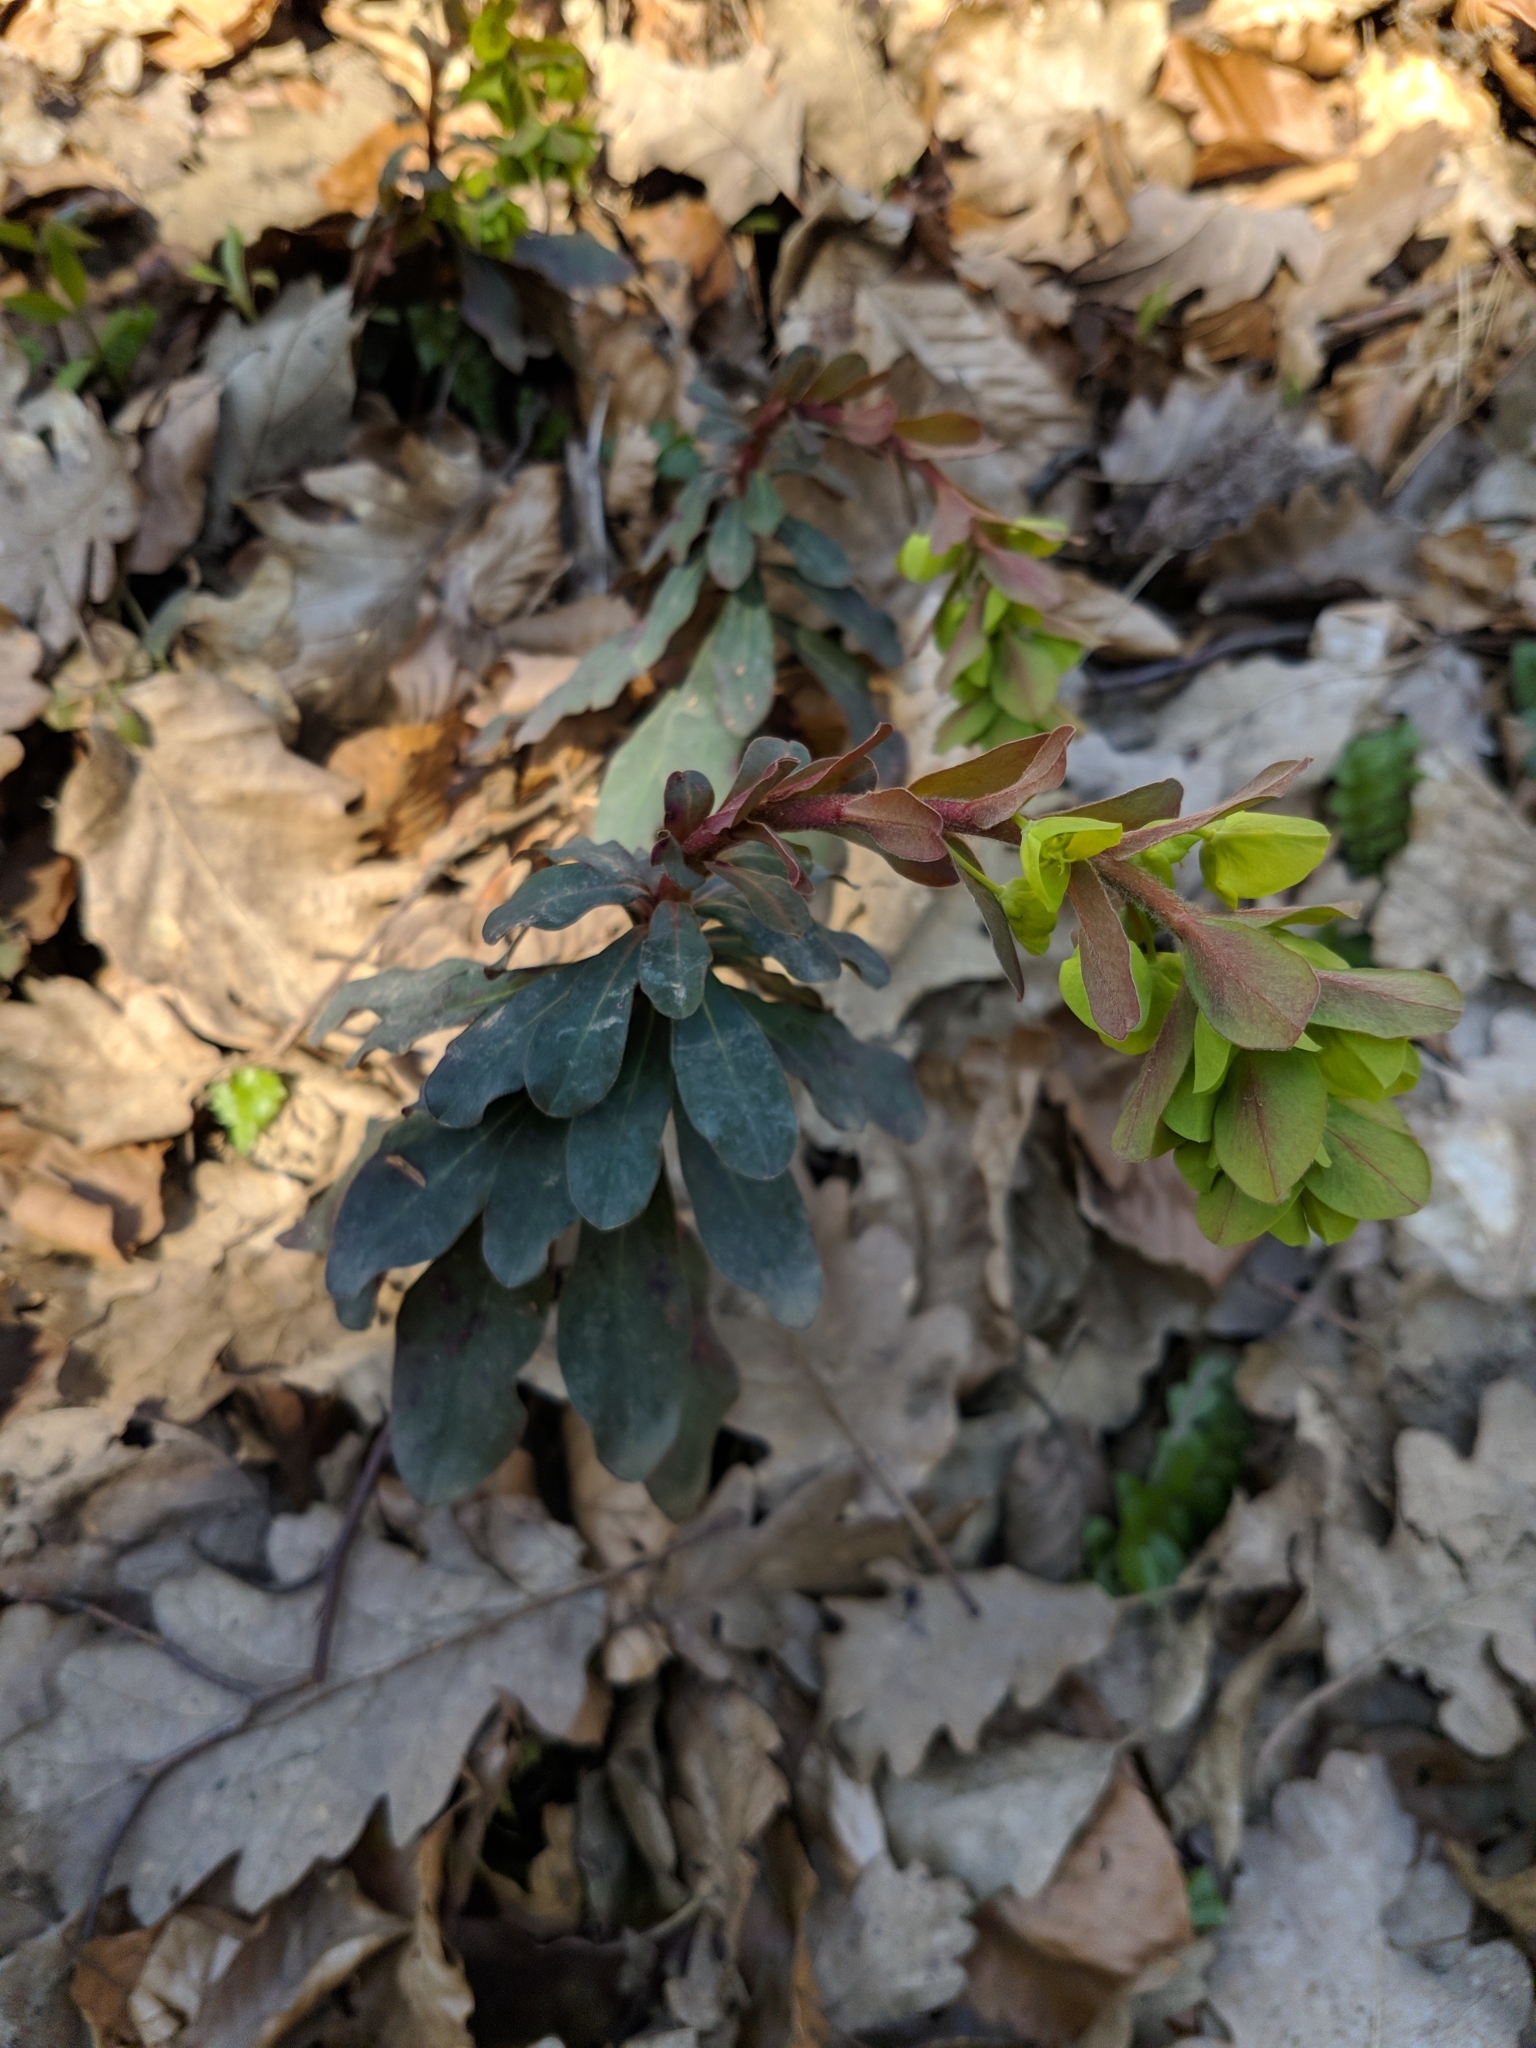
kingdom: Plantae
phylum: Tracheophyta
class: Magnoliopsida
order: Malpighiales
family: Euphorbiaceae
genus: Euphorbia
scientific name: Euphorbia amygdaloides
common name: Wood spurge
